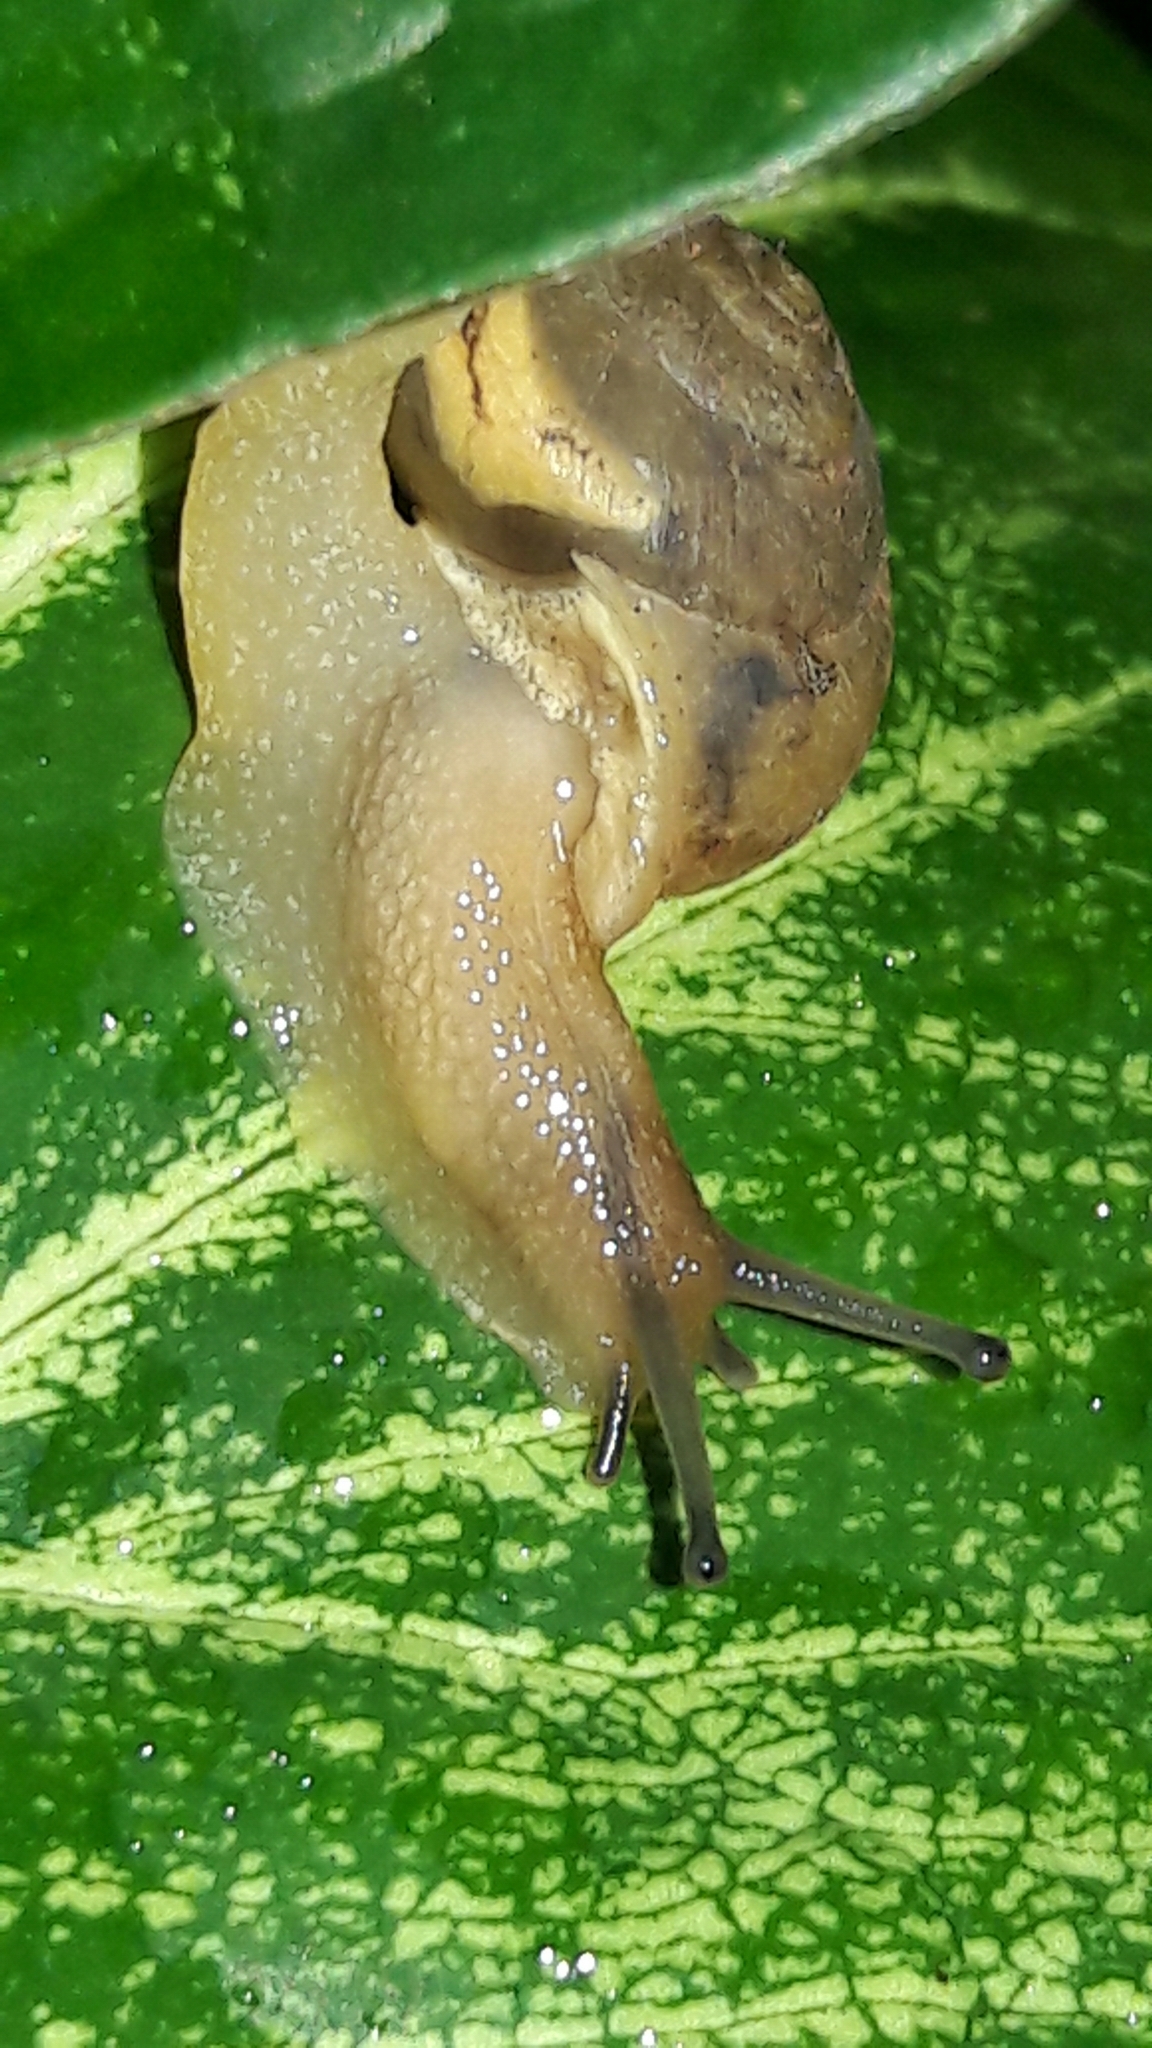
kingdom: Animalia
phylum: Mollusca
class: Gastropoda
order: Stylommatophora
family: Camaenidae
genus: Bradybaena
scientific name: Bradybaena similaris
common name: Asian trampsnail
